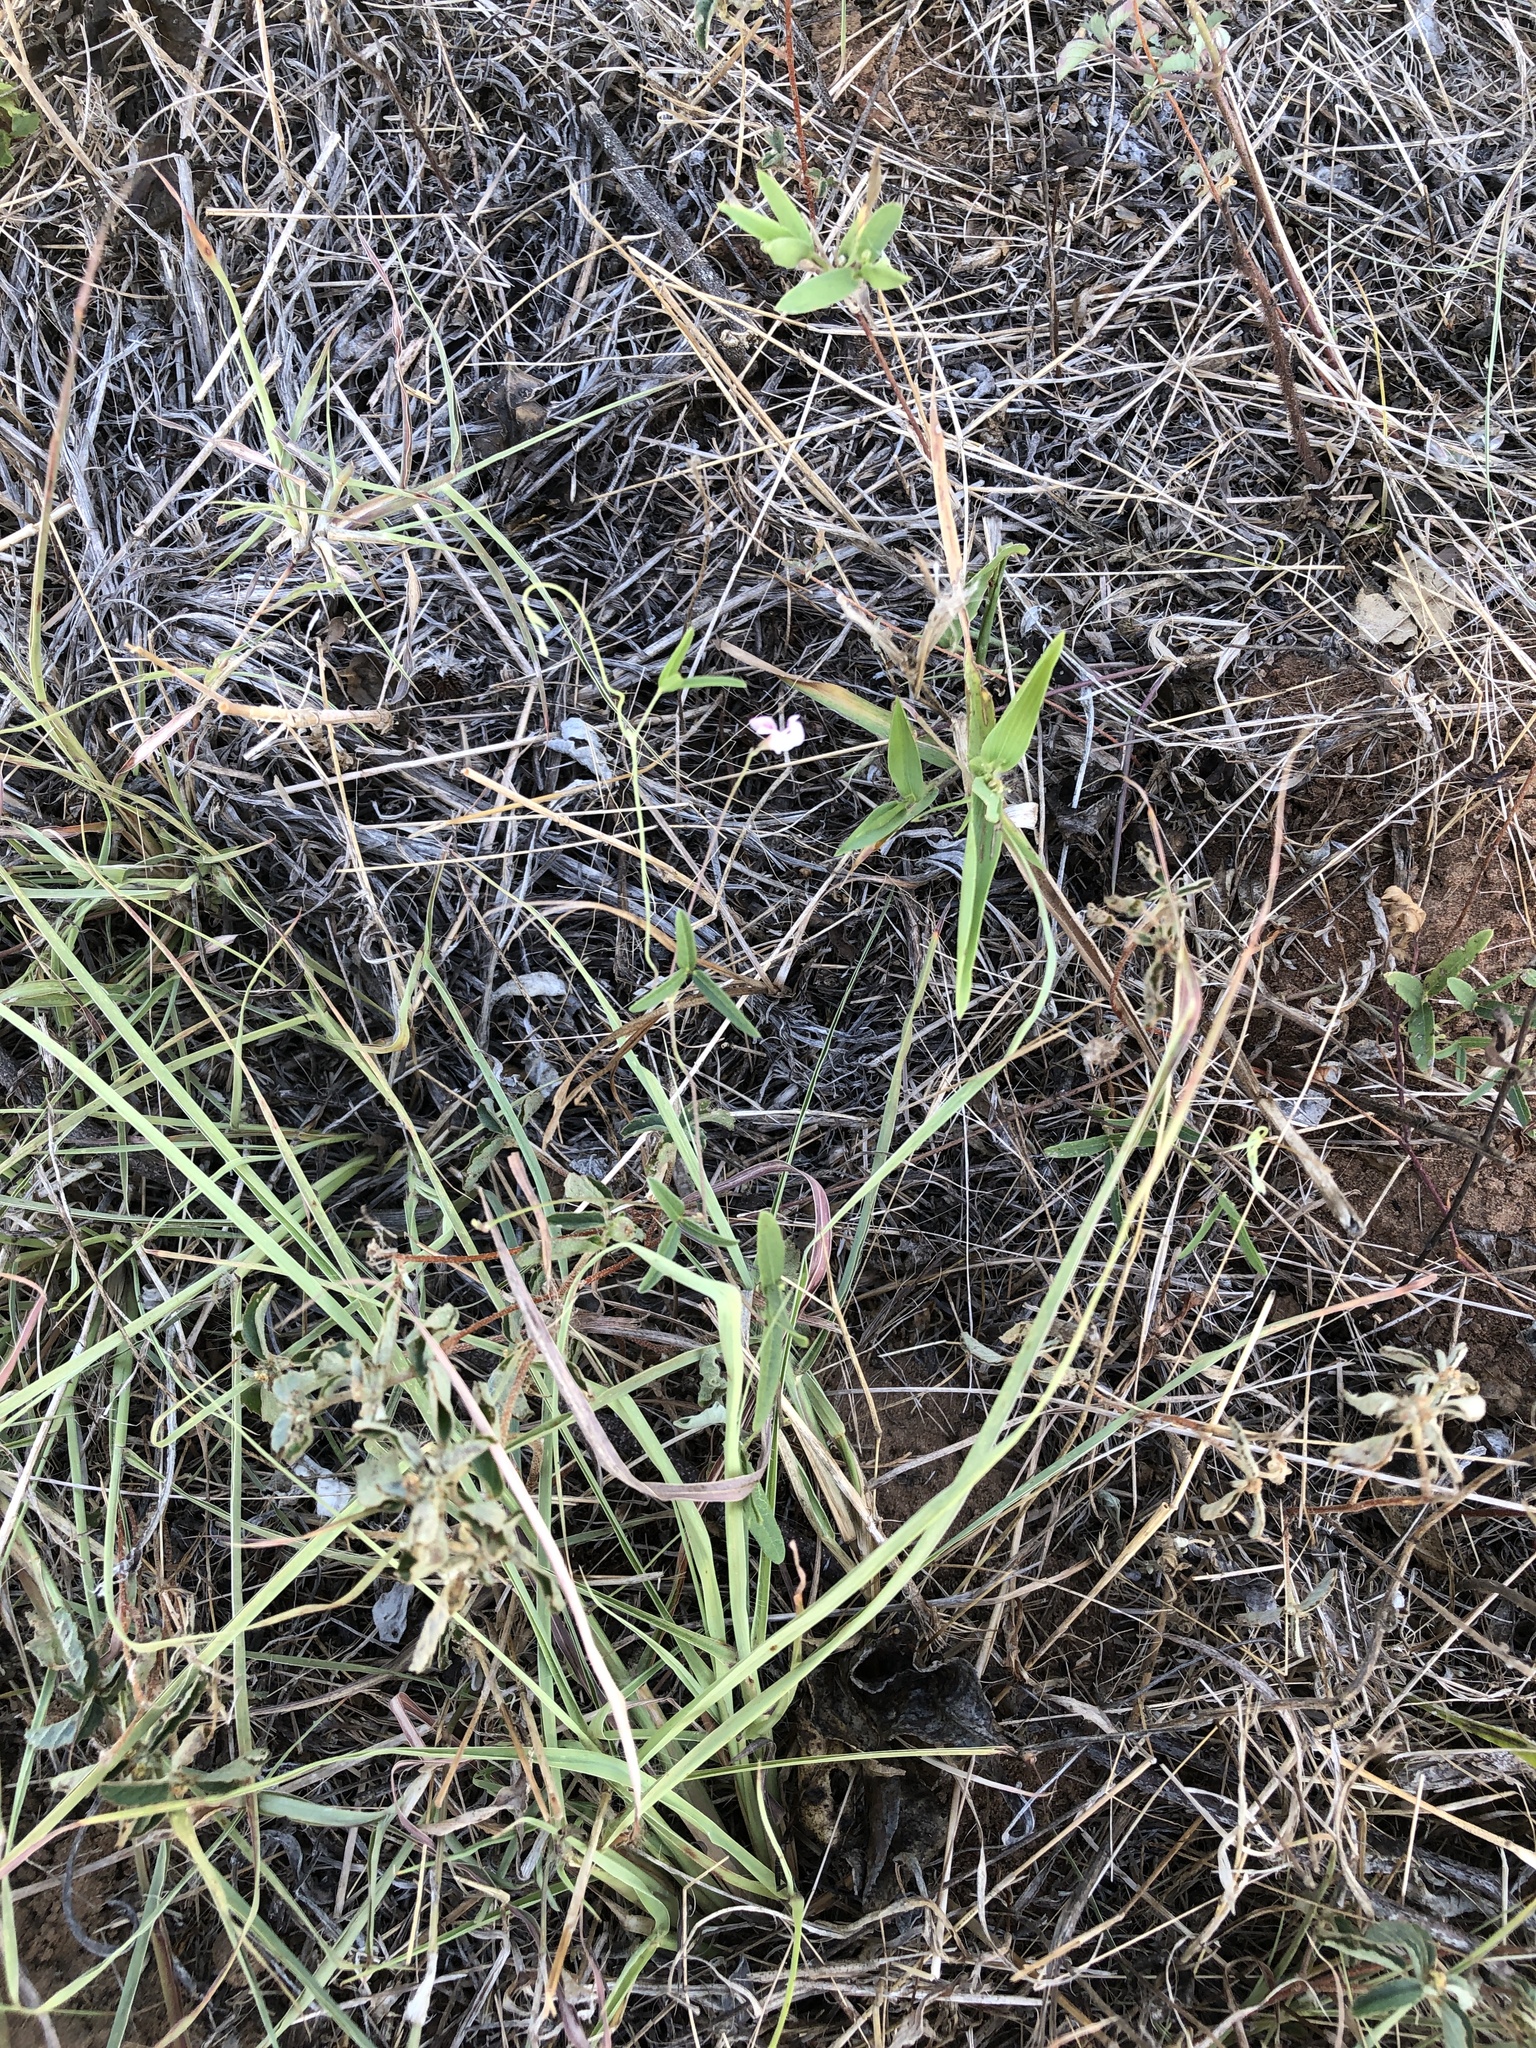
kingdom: Plantae
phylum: Tracheophyta
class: Magnoliopsida
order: Fabales
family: Fabaceae
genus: Strophostyles
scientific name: Strophostyles leiosperma
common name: Smooth-seed wild bean
